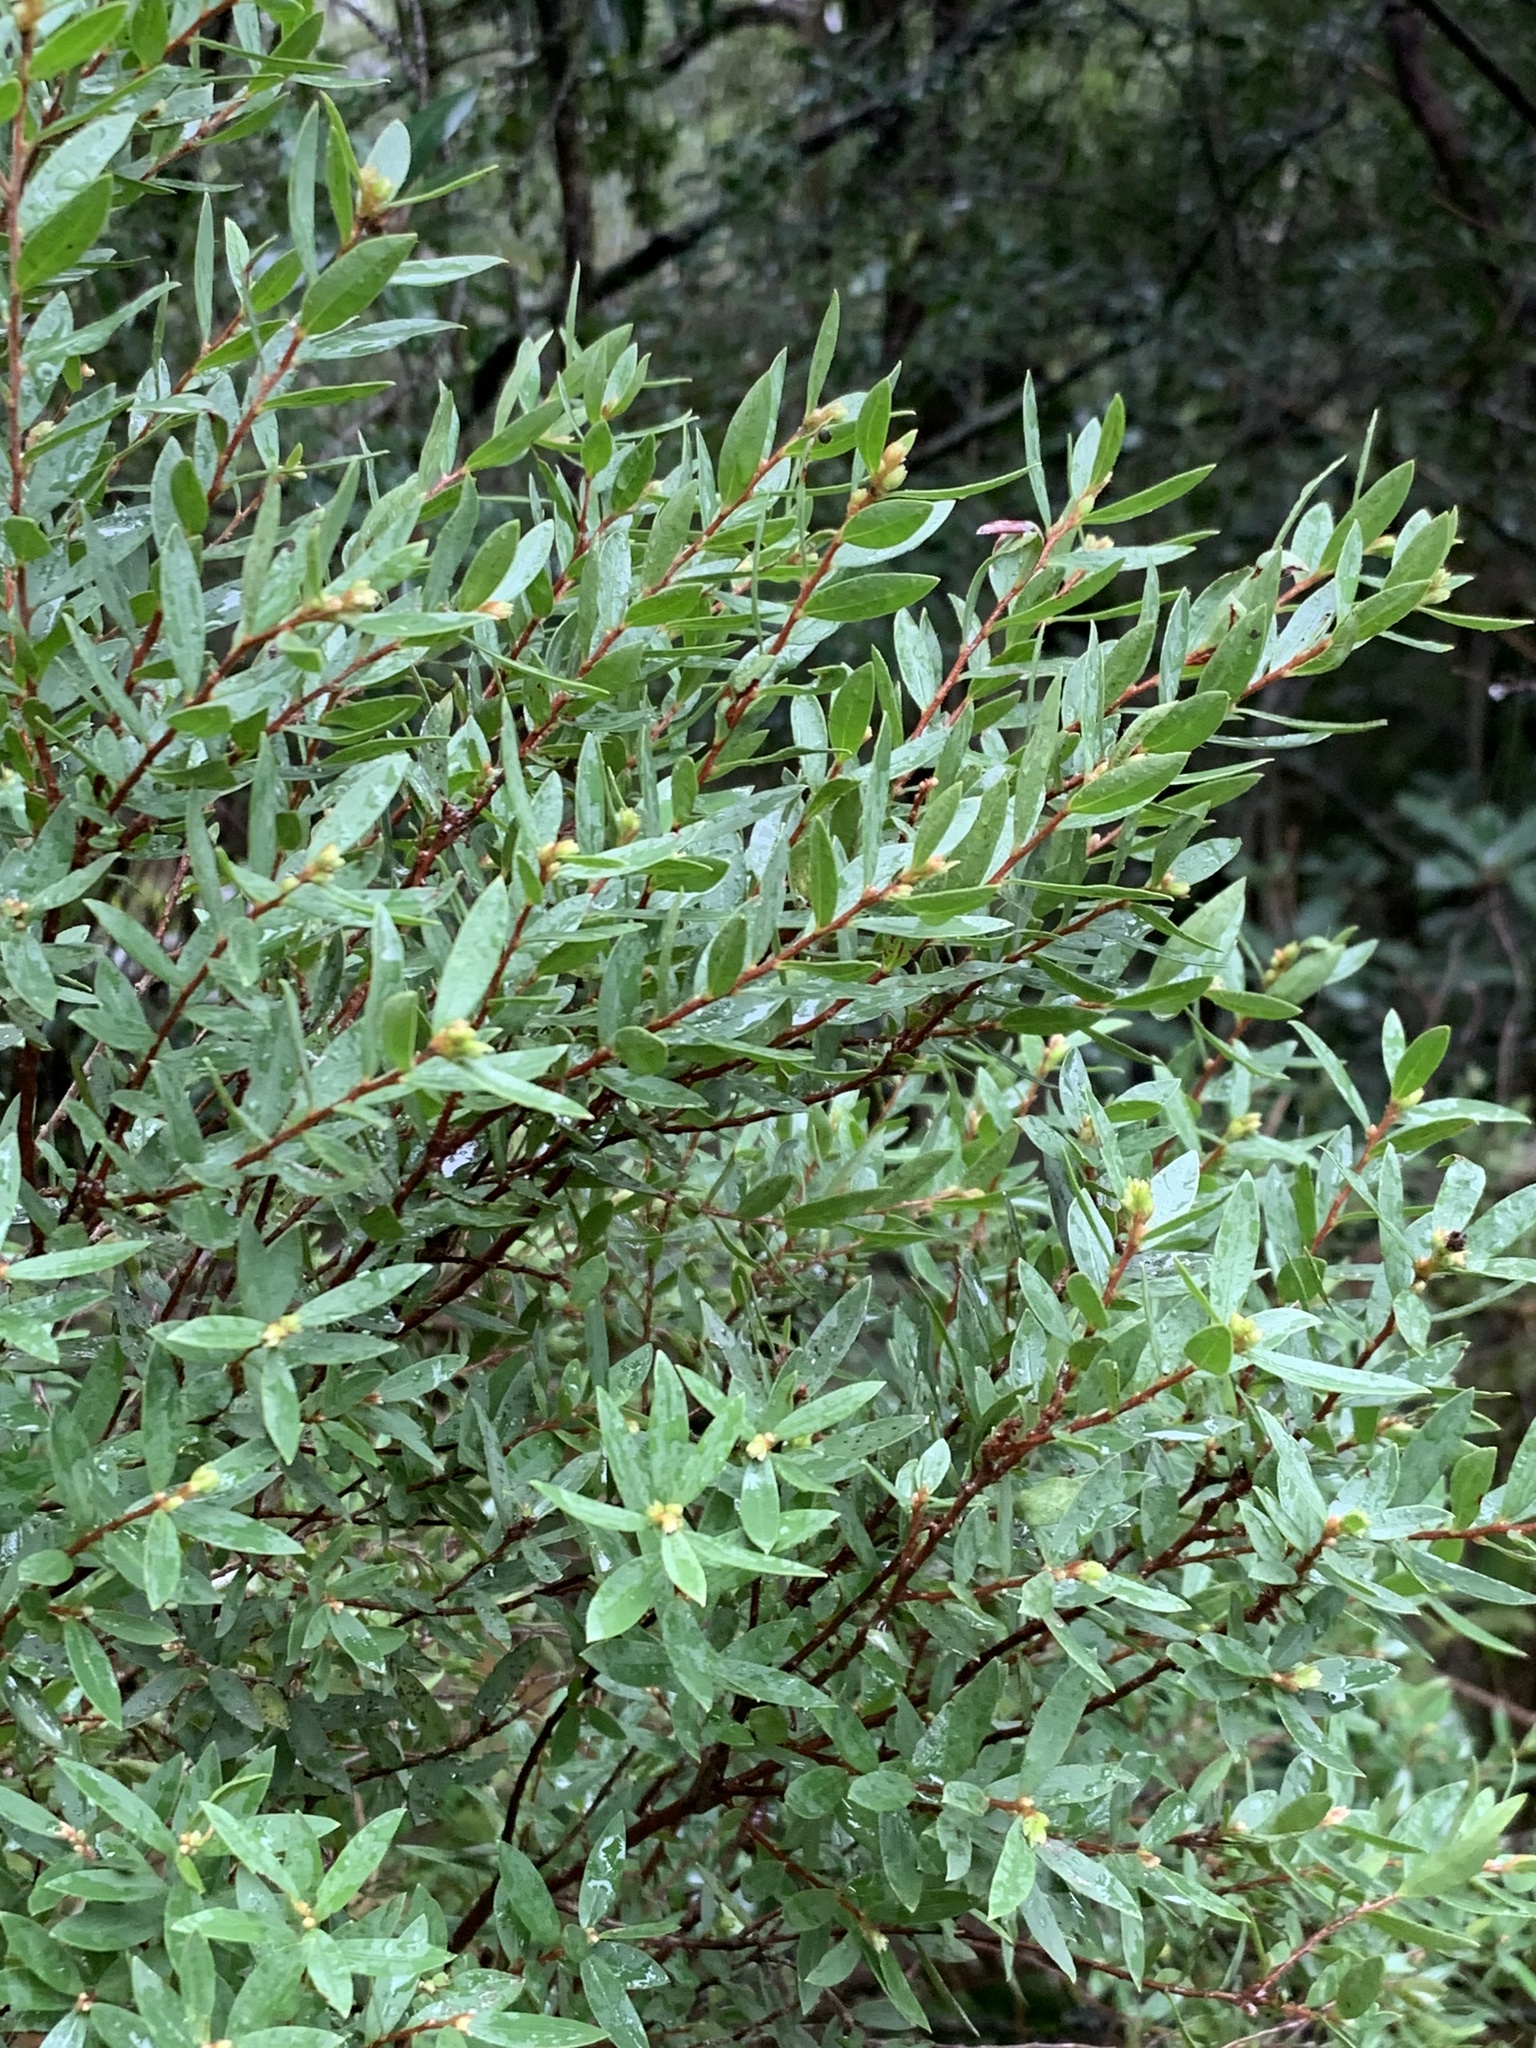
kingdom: Plantae
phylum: Tracheophyta
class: Magnoliopsida
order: Ericales
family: Ebenaceae
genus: Diospyros
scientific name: Diospyros glabra
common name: Fynbos star apple
